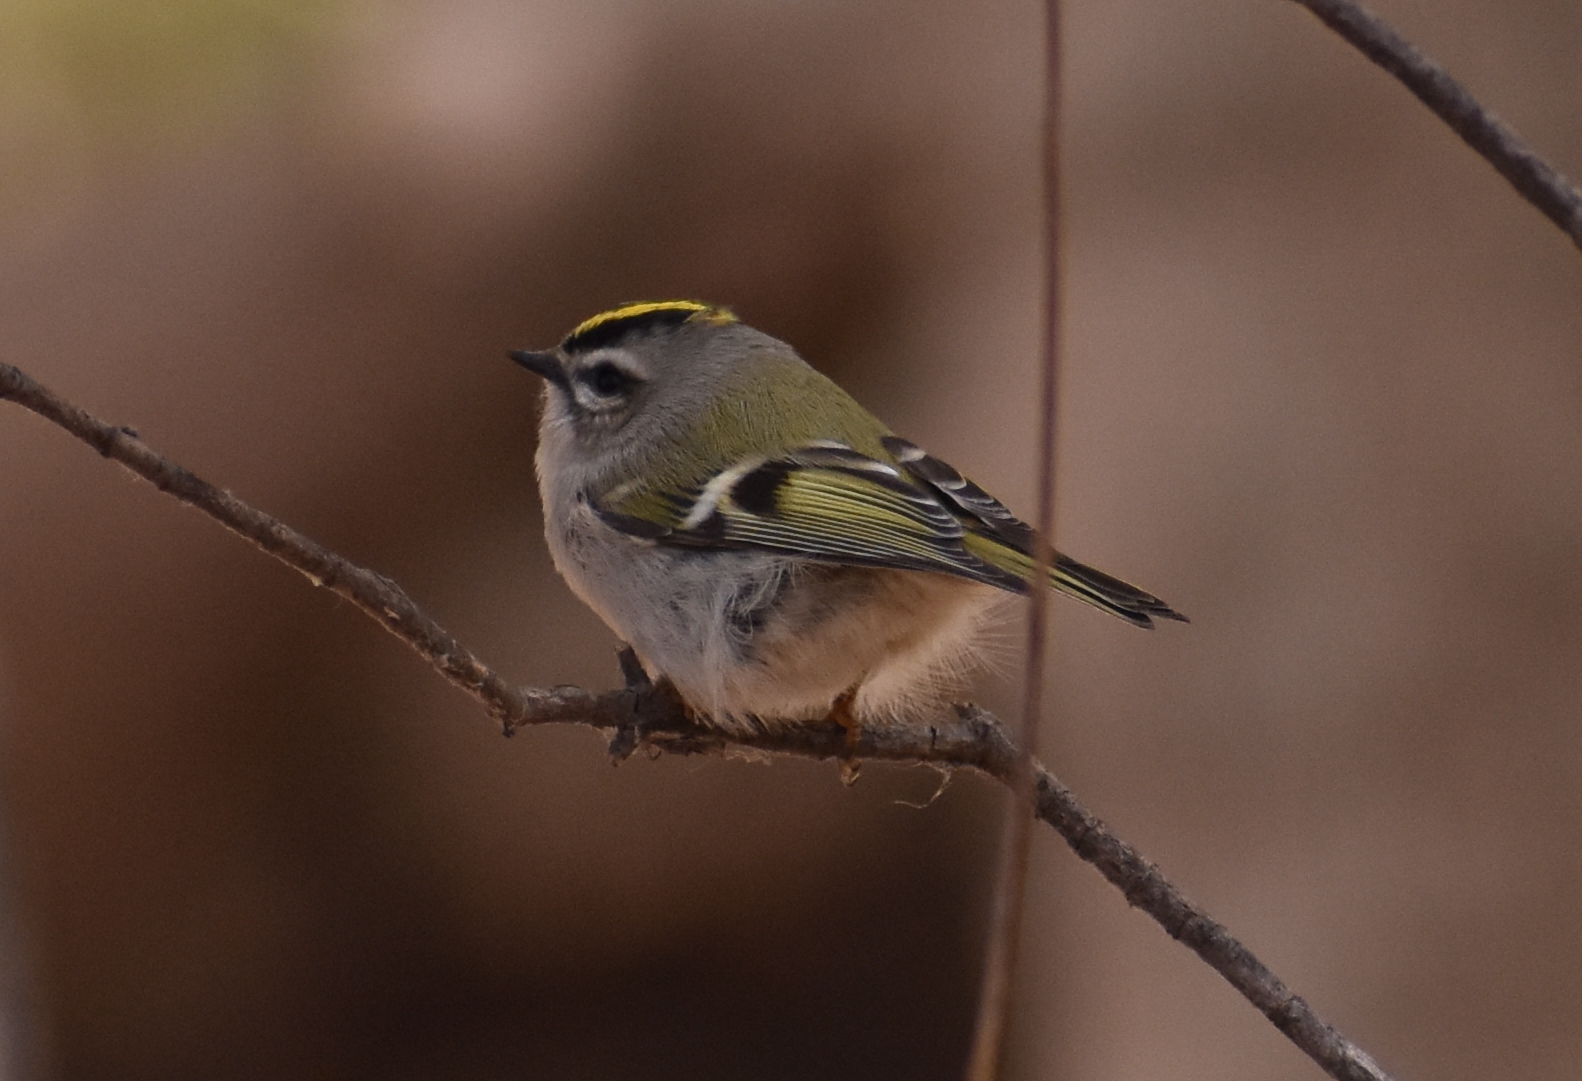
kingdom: Animalia
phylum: Chordata
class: Aves
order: Passeriformes
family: Regulidae
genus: Regulus
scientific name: Regulus satrapa
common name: Golden-crowned kinglet
